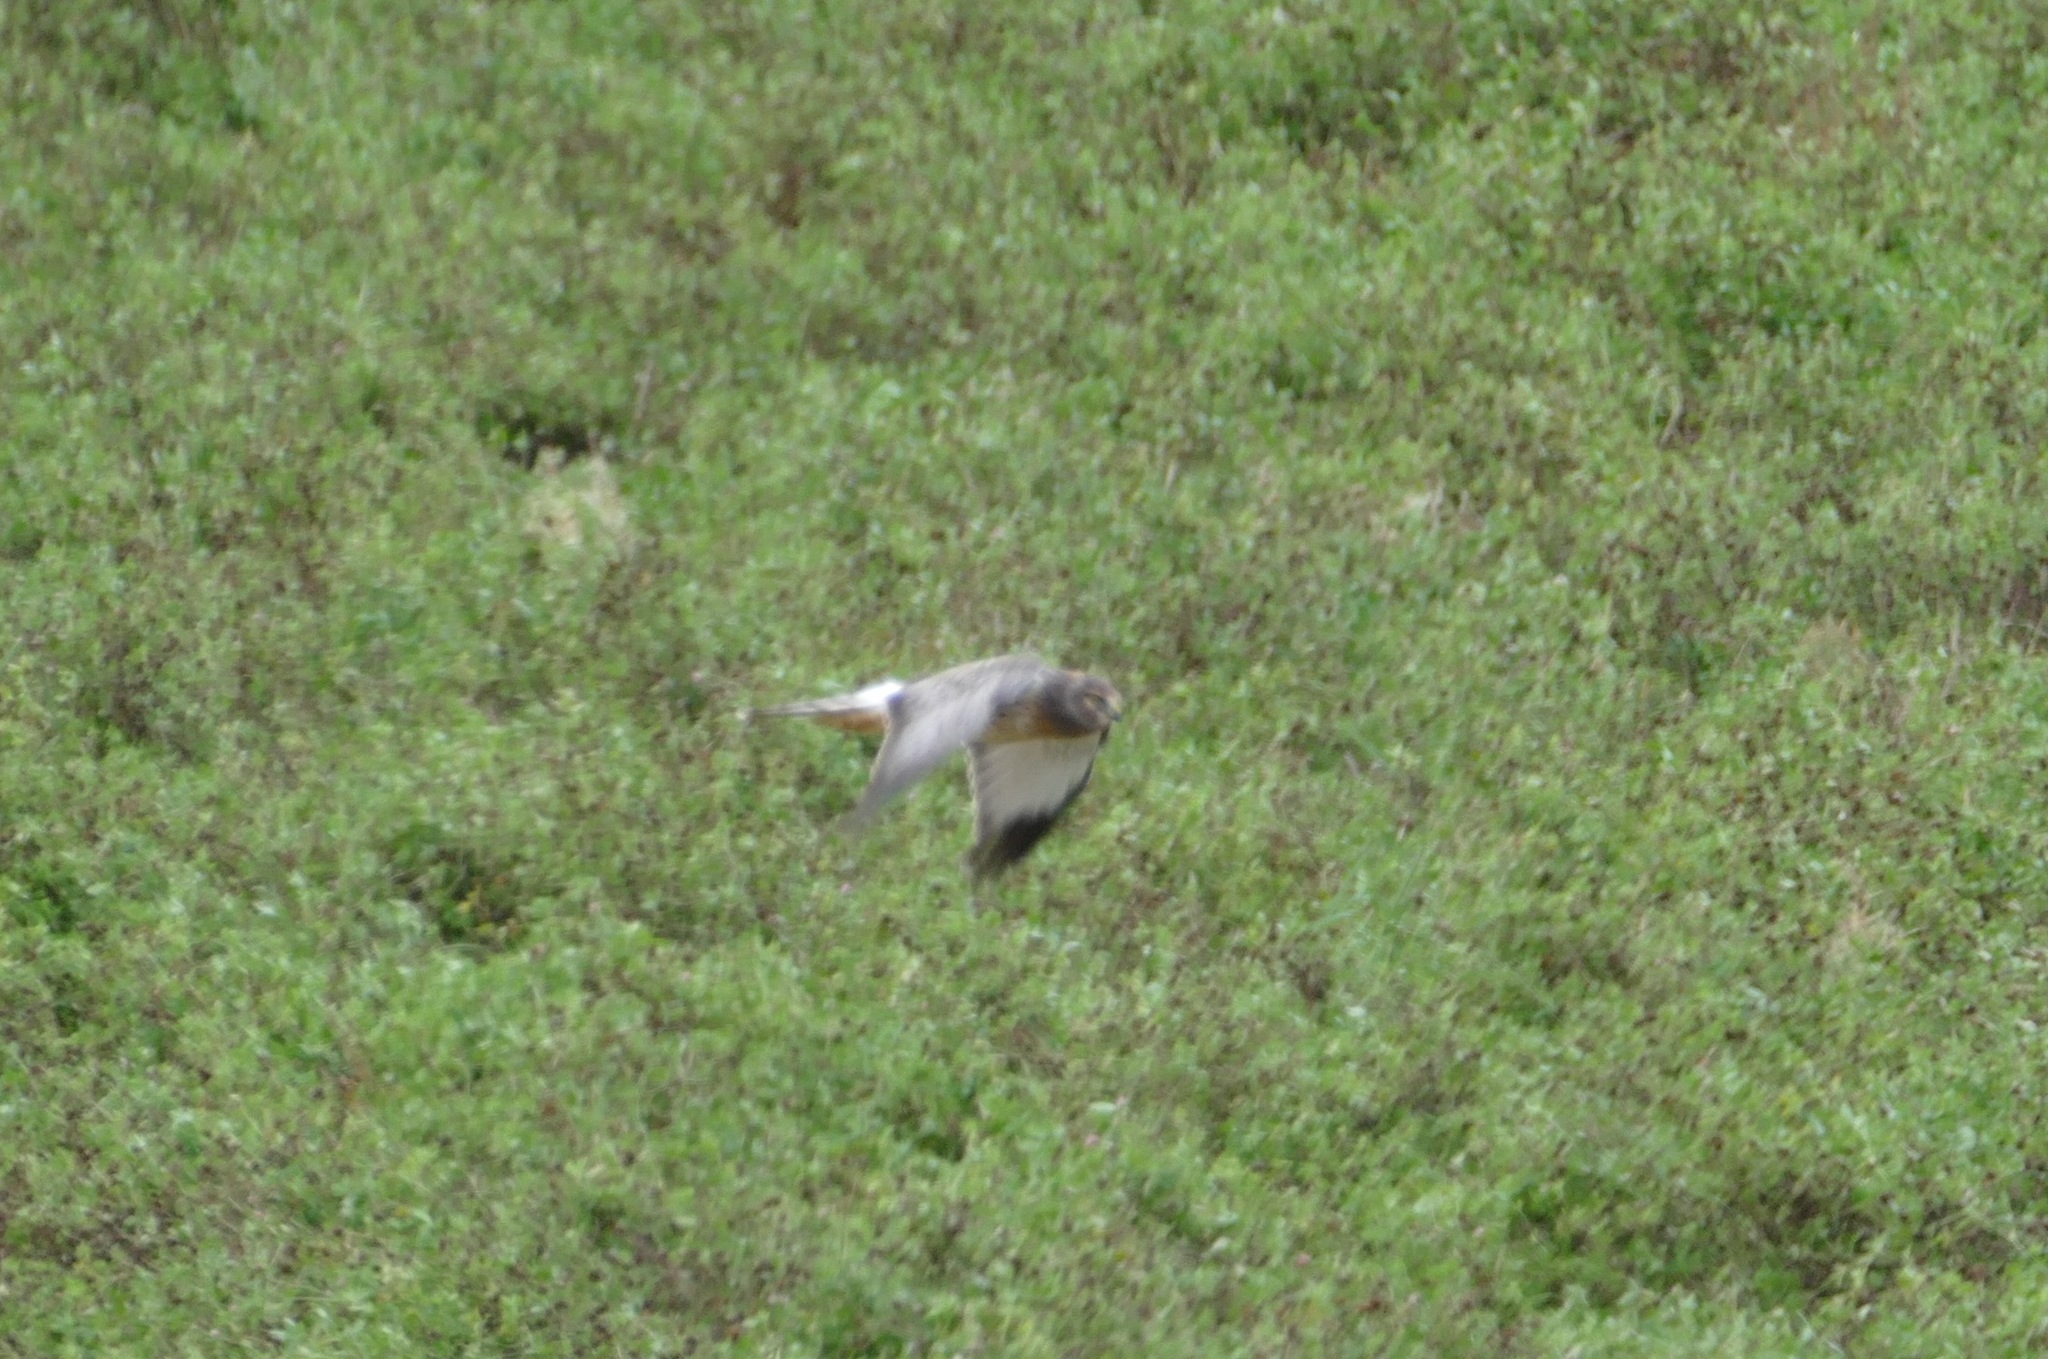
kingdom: Animalia
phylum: Chordata
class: Aves
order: Accipitriformes
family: Accipitridae
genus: Circus
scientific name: Circus cyaneus
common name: Hen harrier
